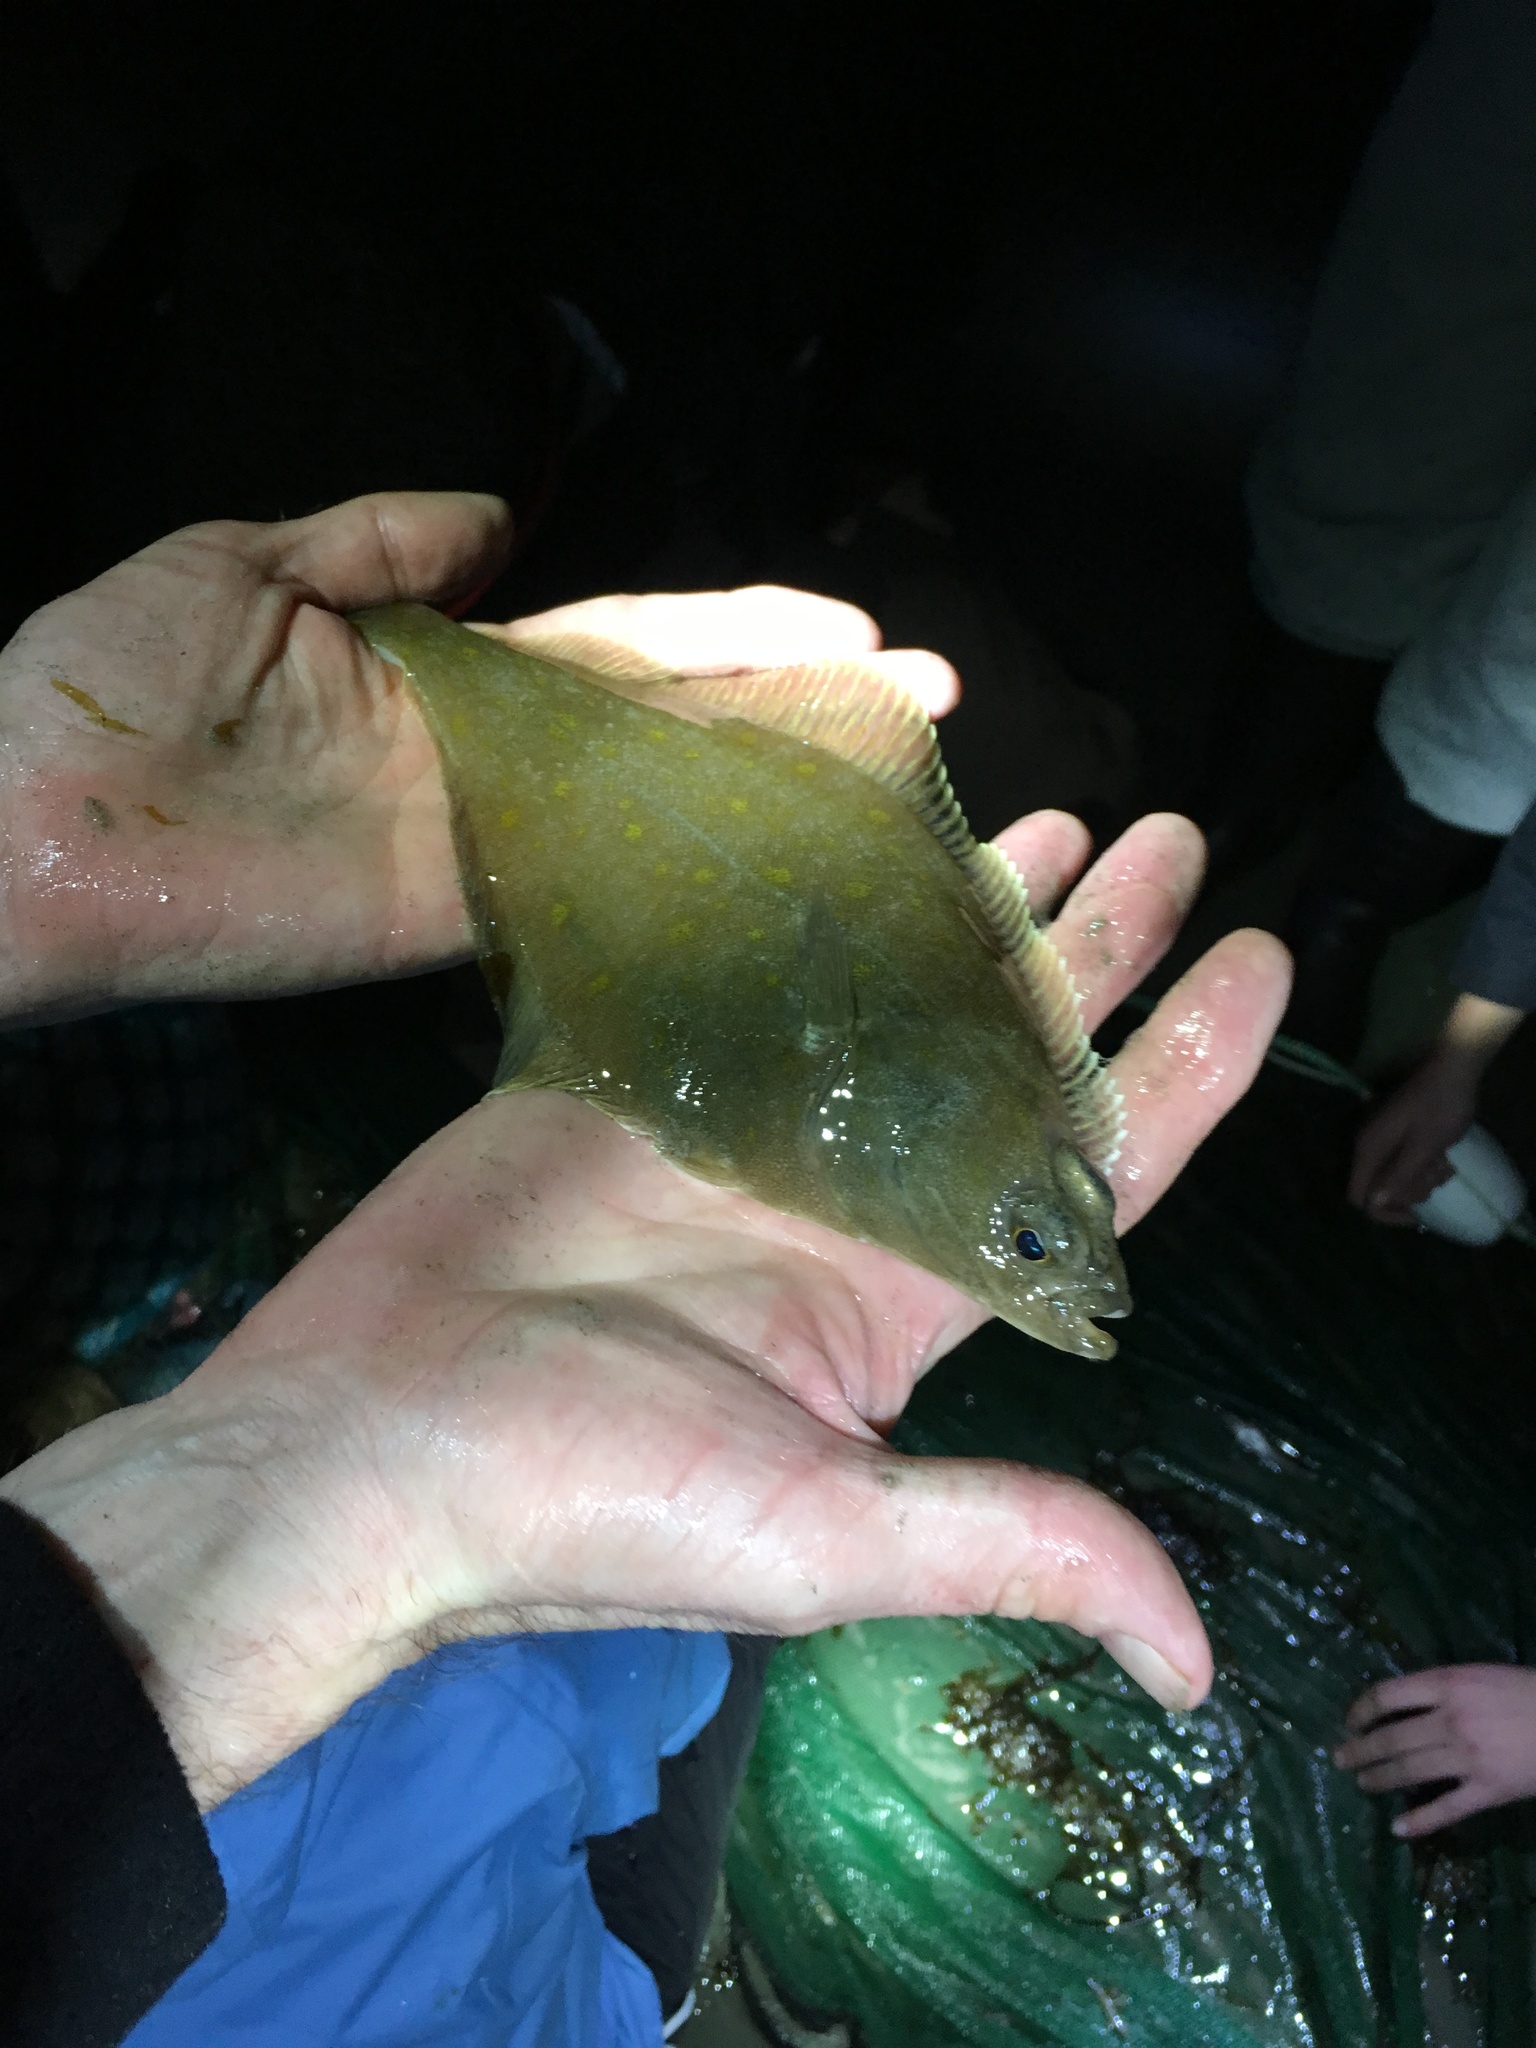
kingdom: Animalia
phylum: Chordata
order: Pleuronectiformes
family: Pleuronectidae
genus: Parophrys
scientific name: Parophrys vetulus
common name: English sole
